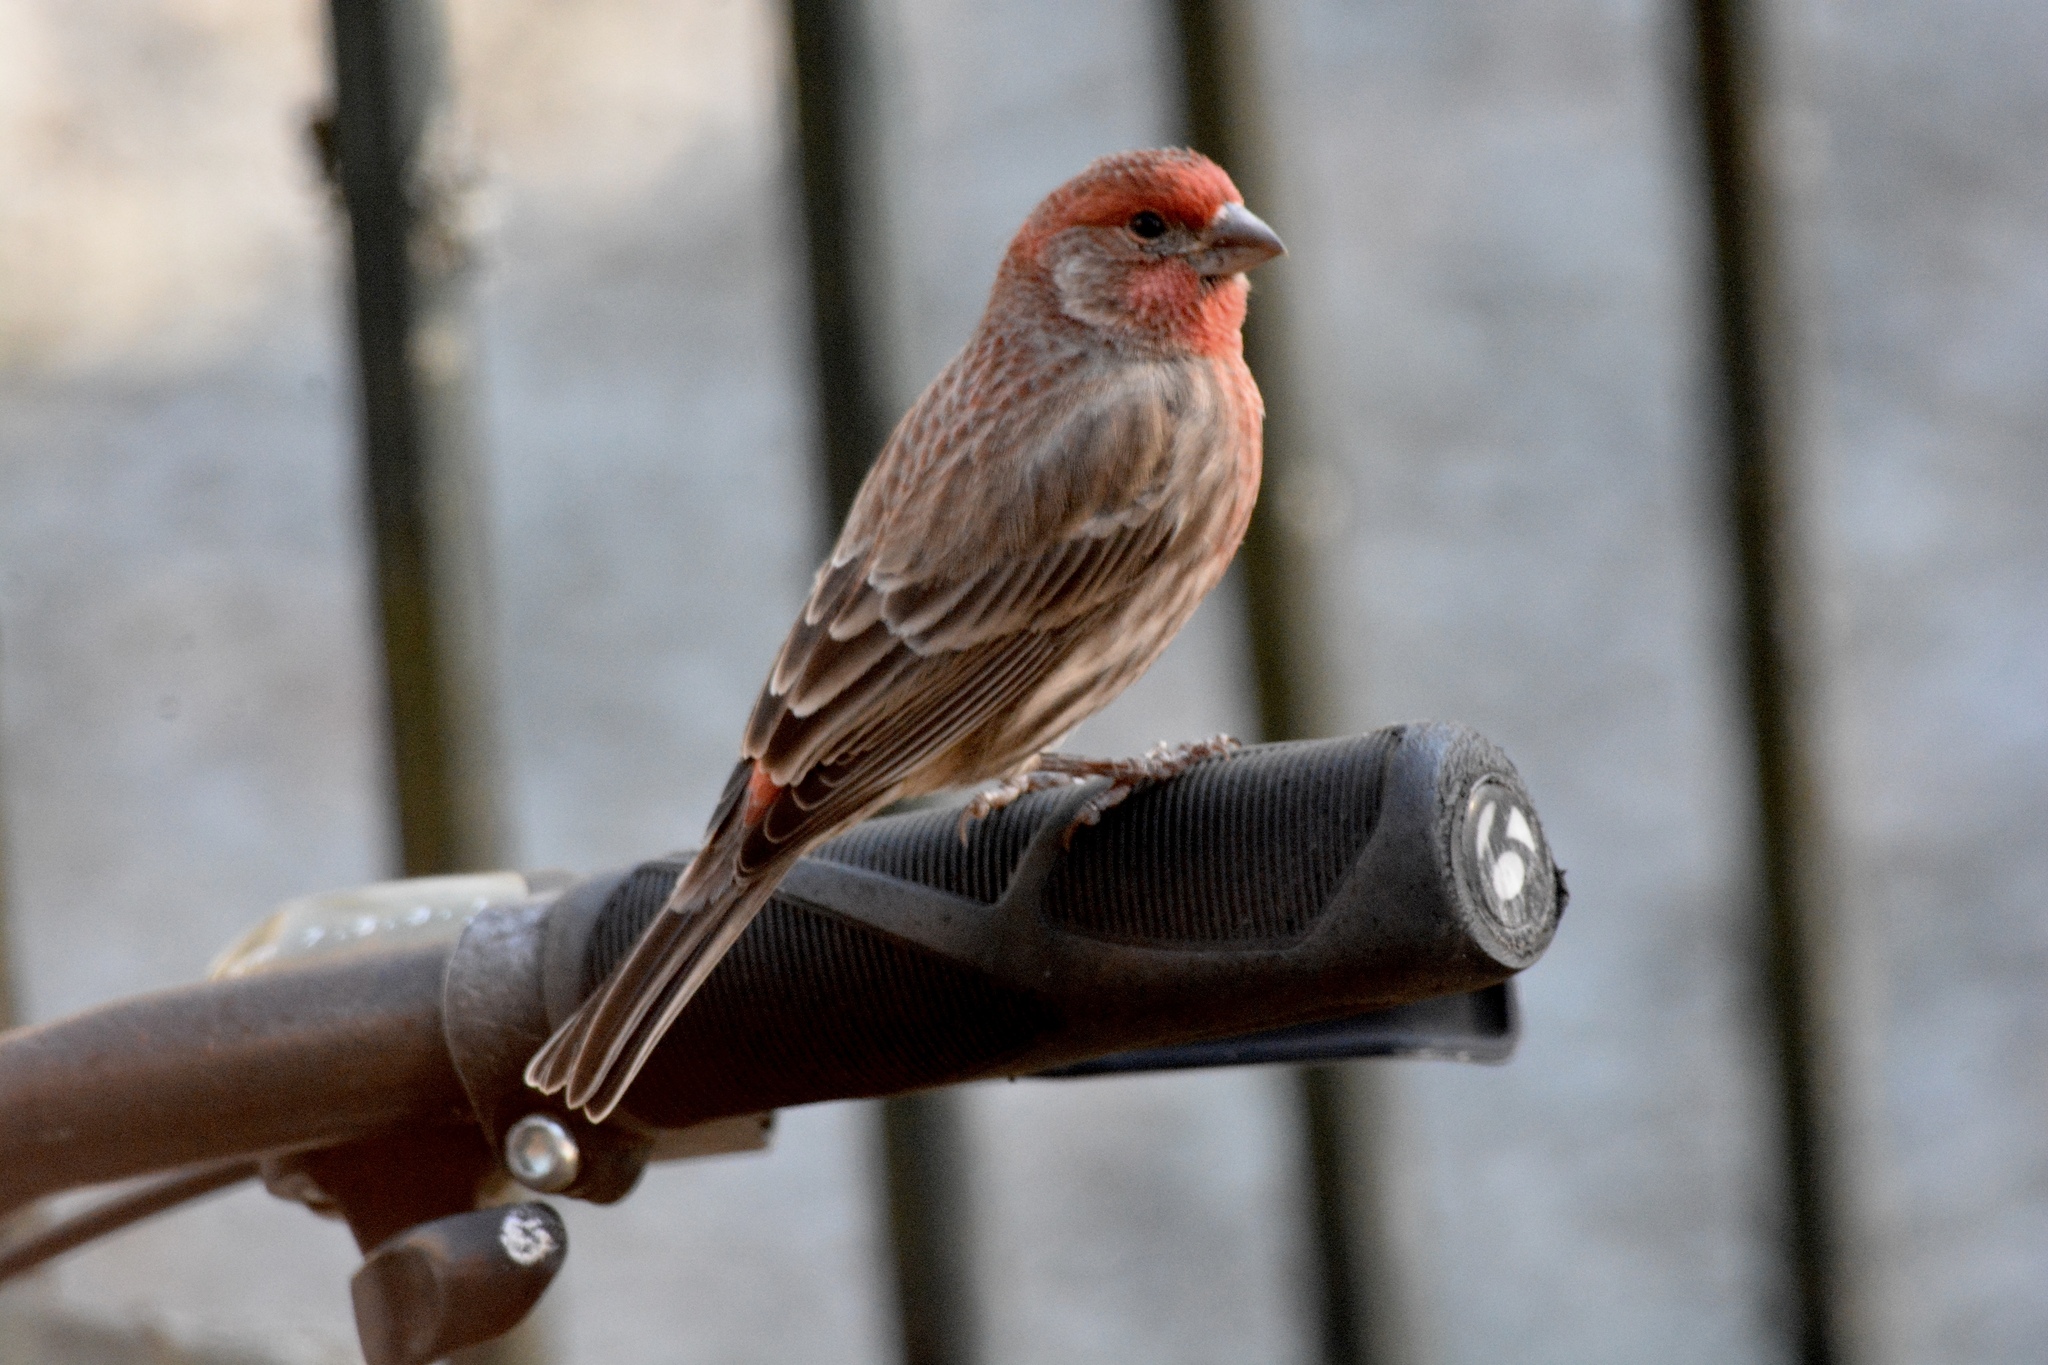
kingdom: Animalia
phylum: Chordata
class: Aves
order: Passeriformes
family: Fringillidae
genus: Haemorhous
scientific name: Haemorhous mexicanus
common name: House finch
